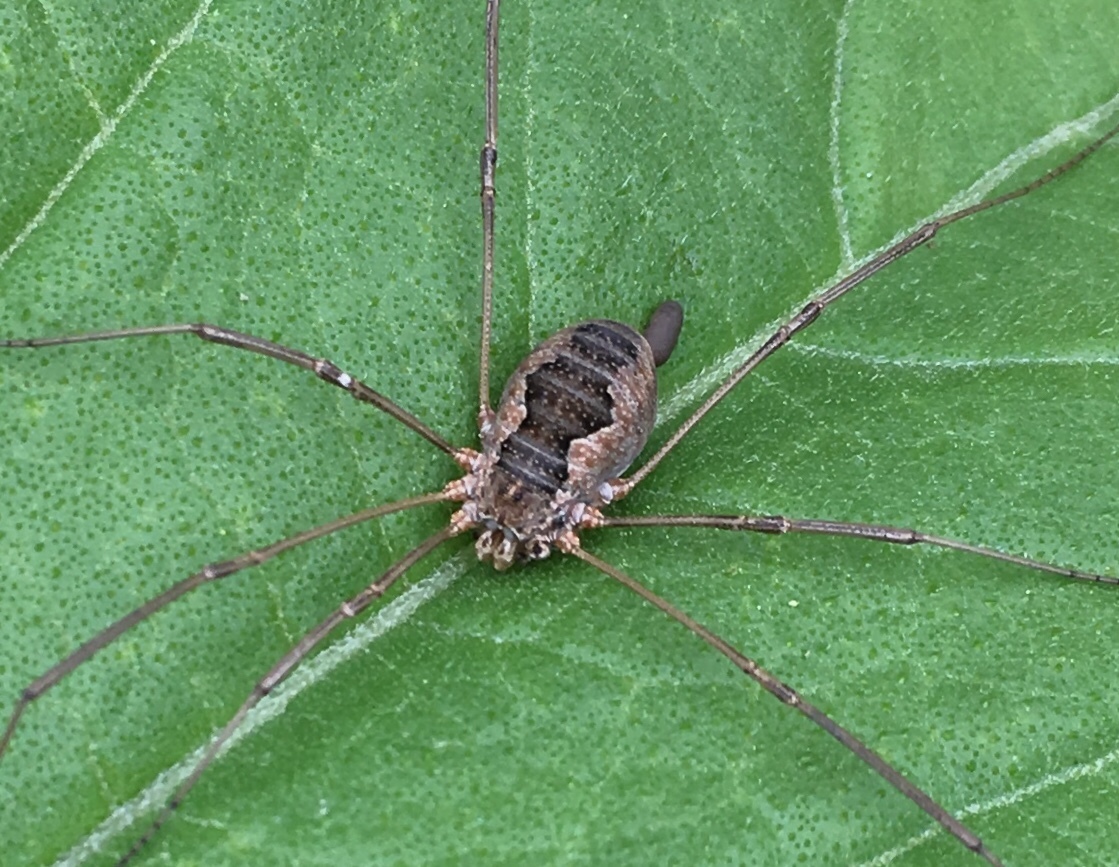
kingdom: Animalia
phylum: Arthropoda
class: Arachnida
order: Opiliones
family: Phalangiidae
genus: Phalangium
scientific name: Phalangium opilio
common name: Daddy longleg
